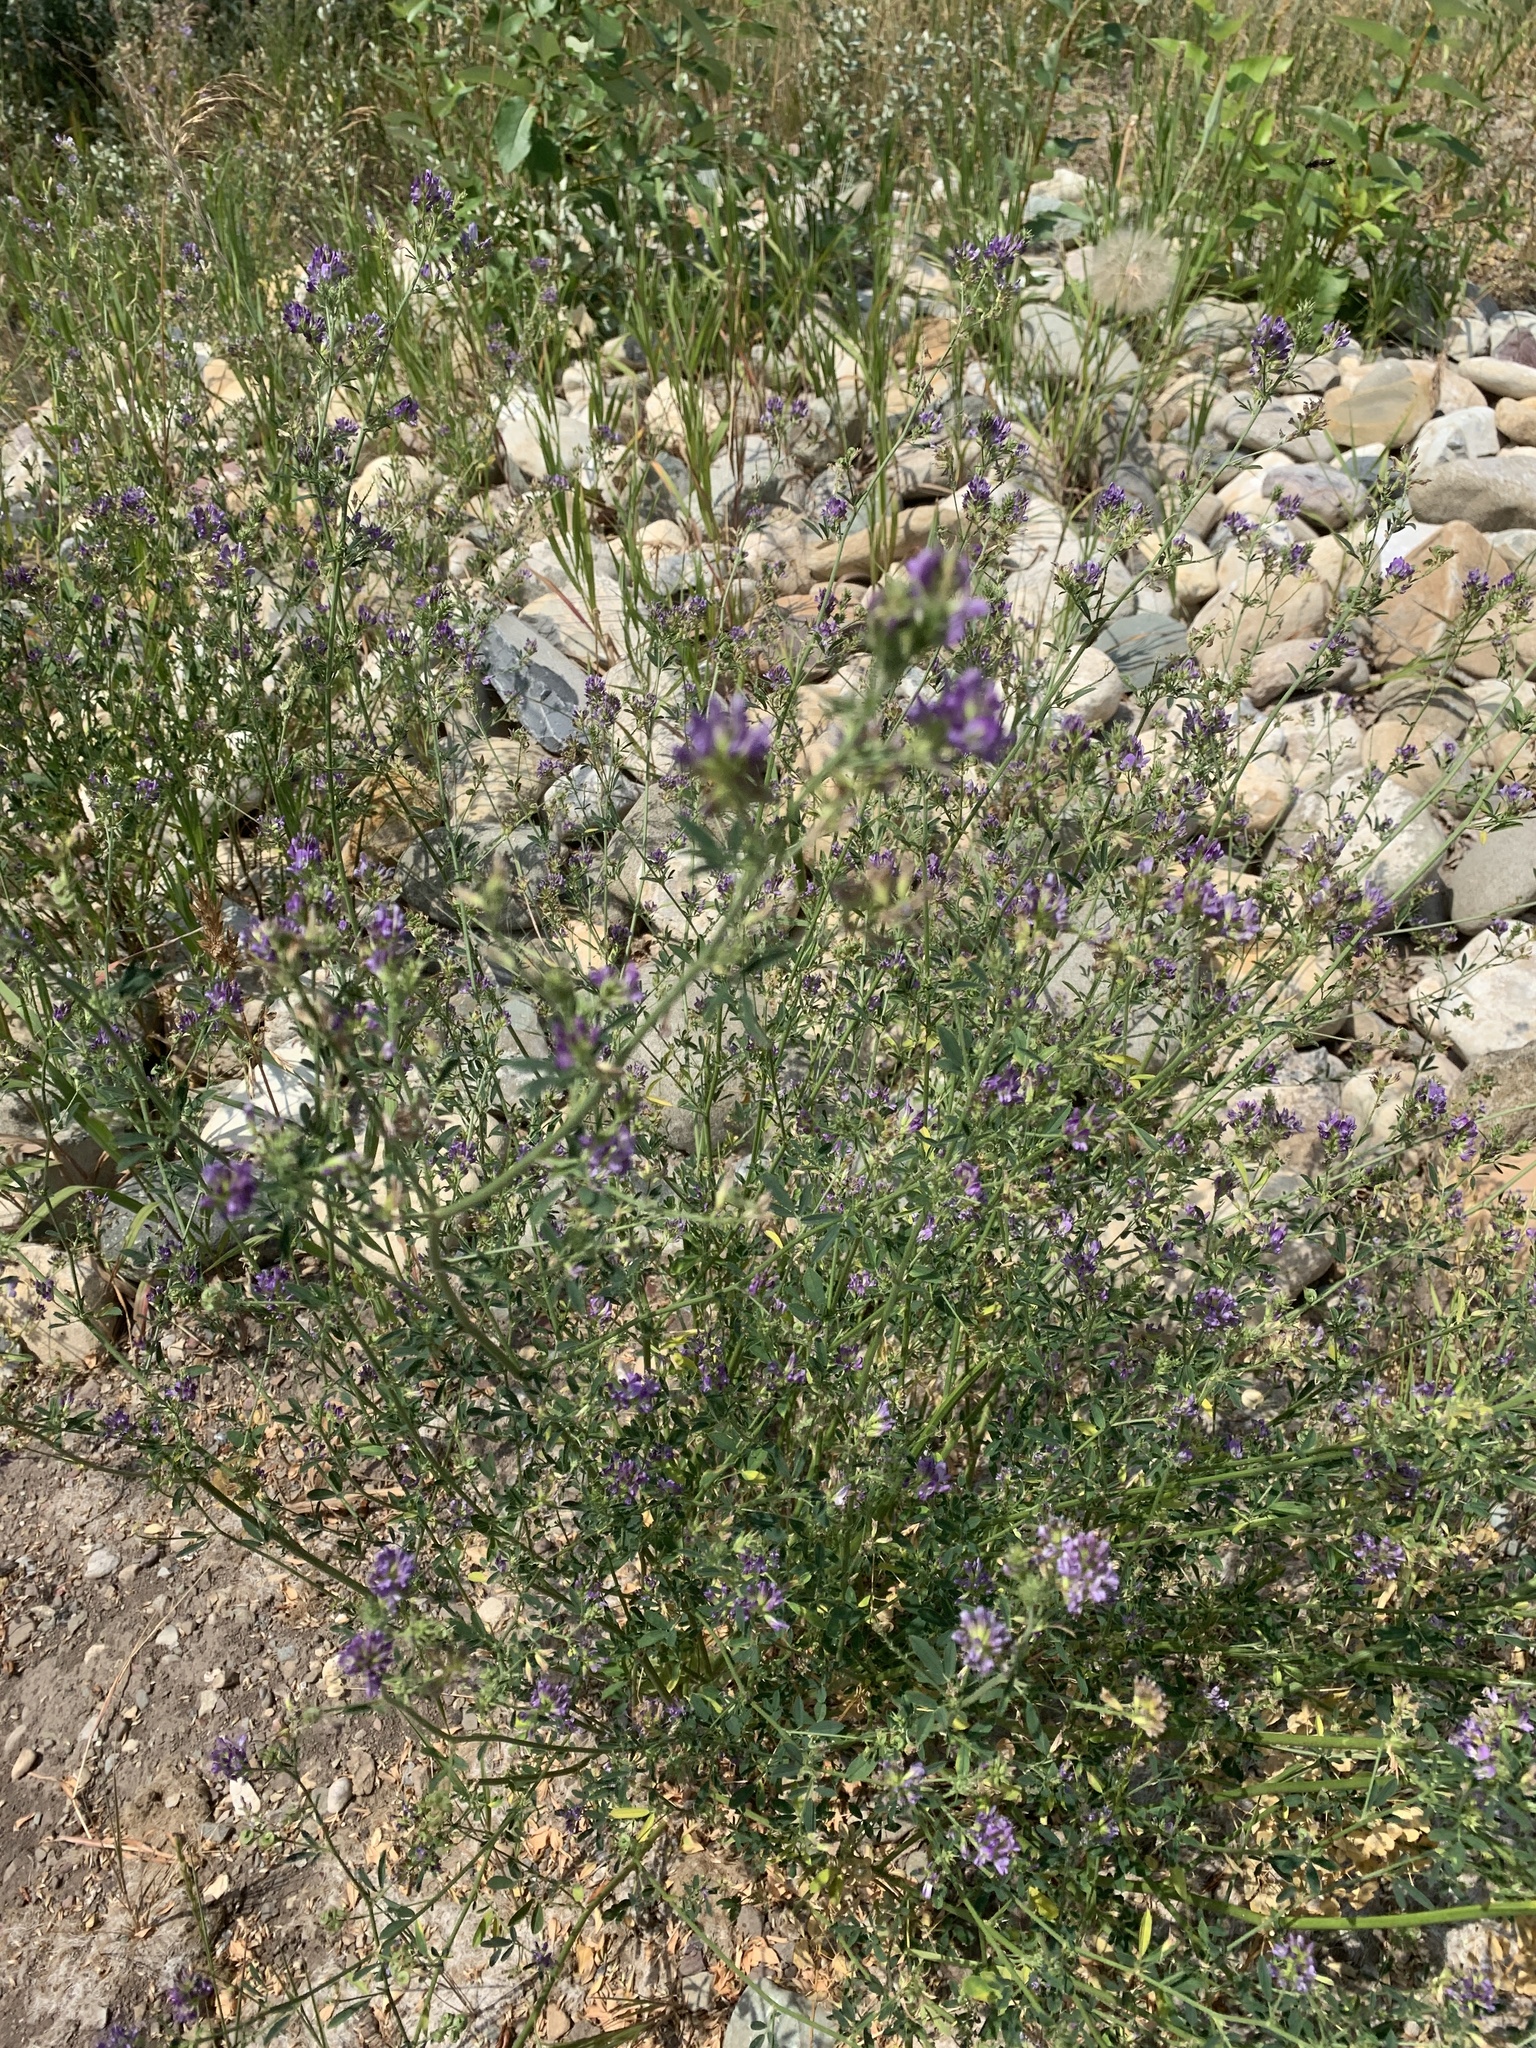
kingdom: Plantae
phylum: Tracheophyta
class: Magnoliopsida
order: Fabales
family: Fabaceae
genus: Medicago
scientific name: Medicago sativa
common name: Alfalfa
